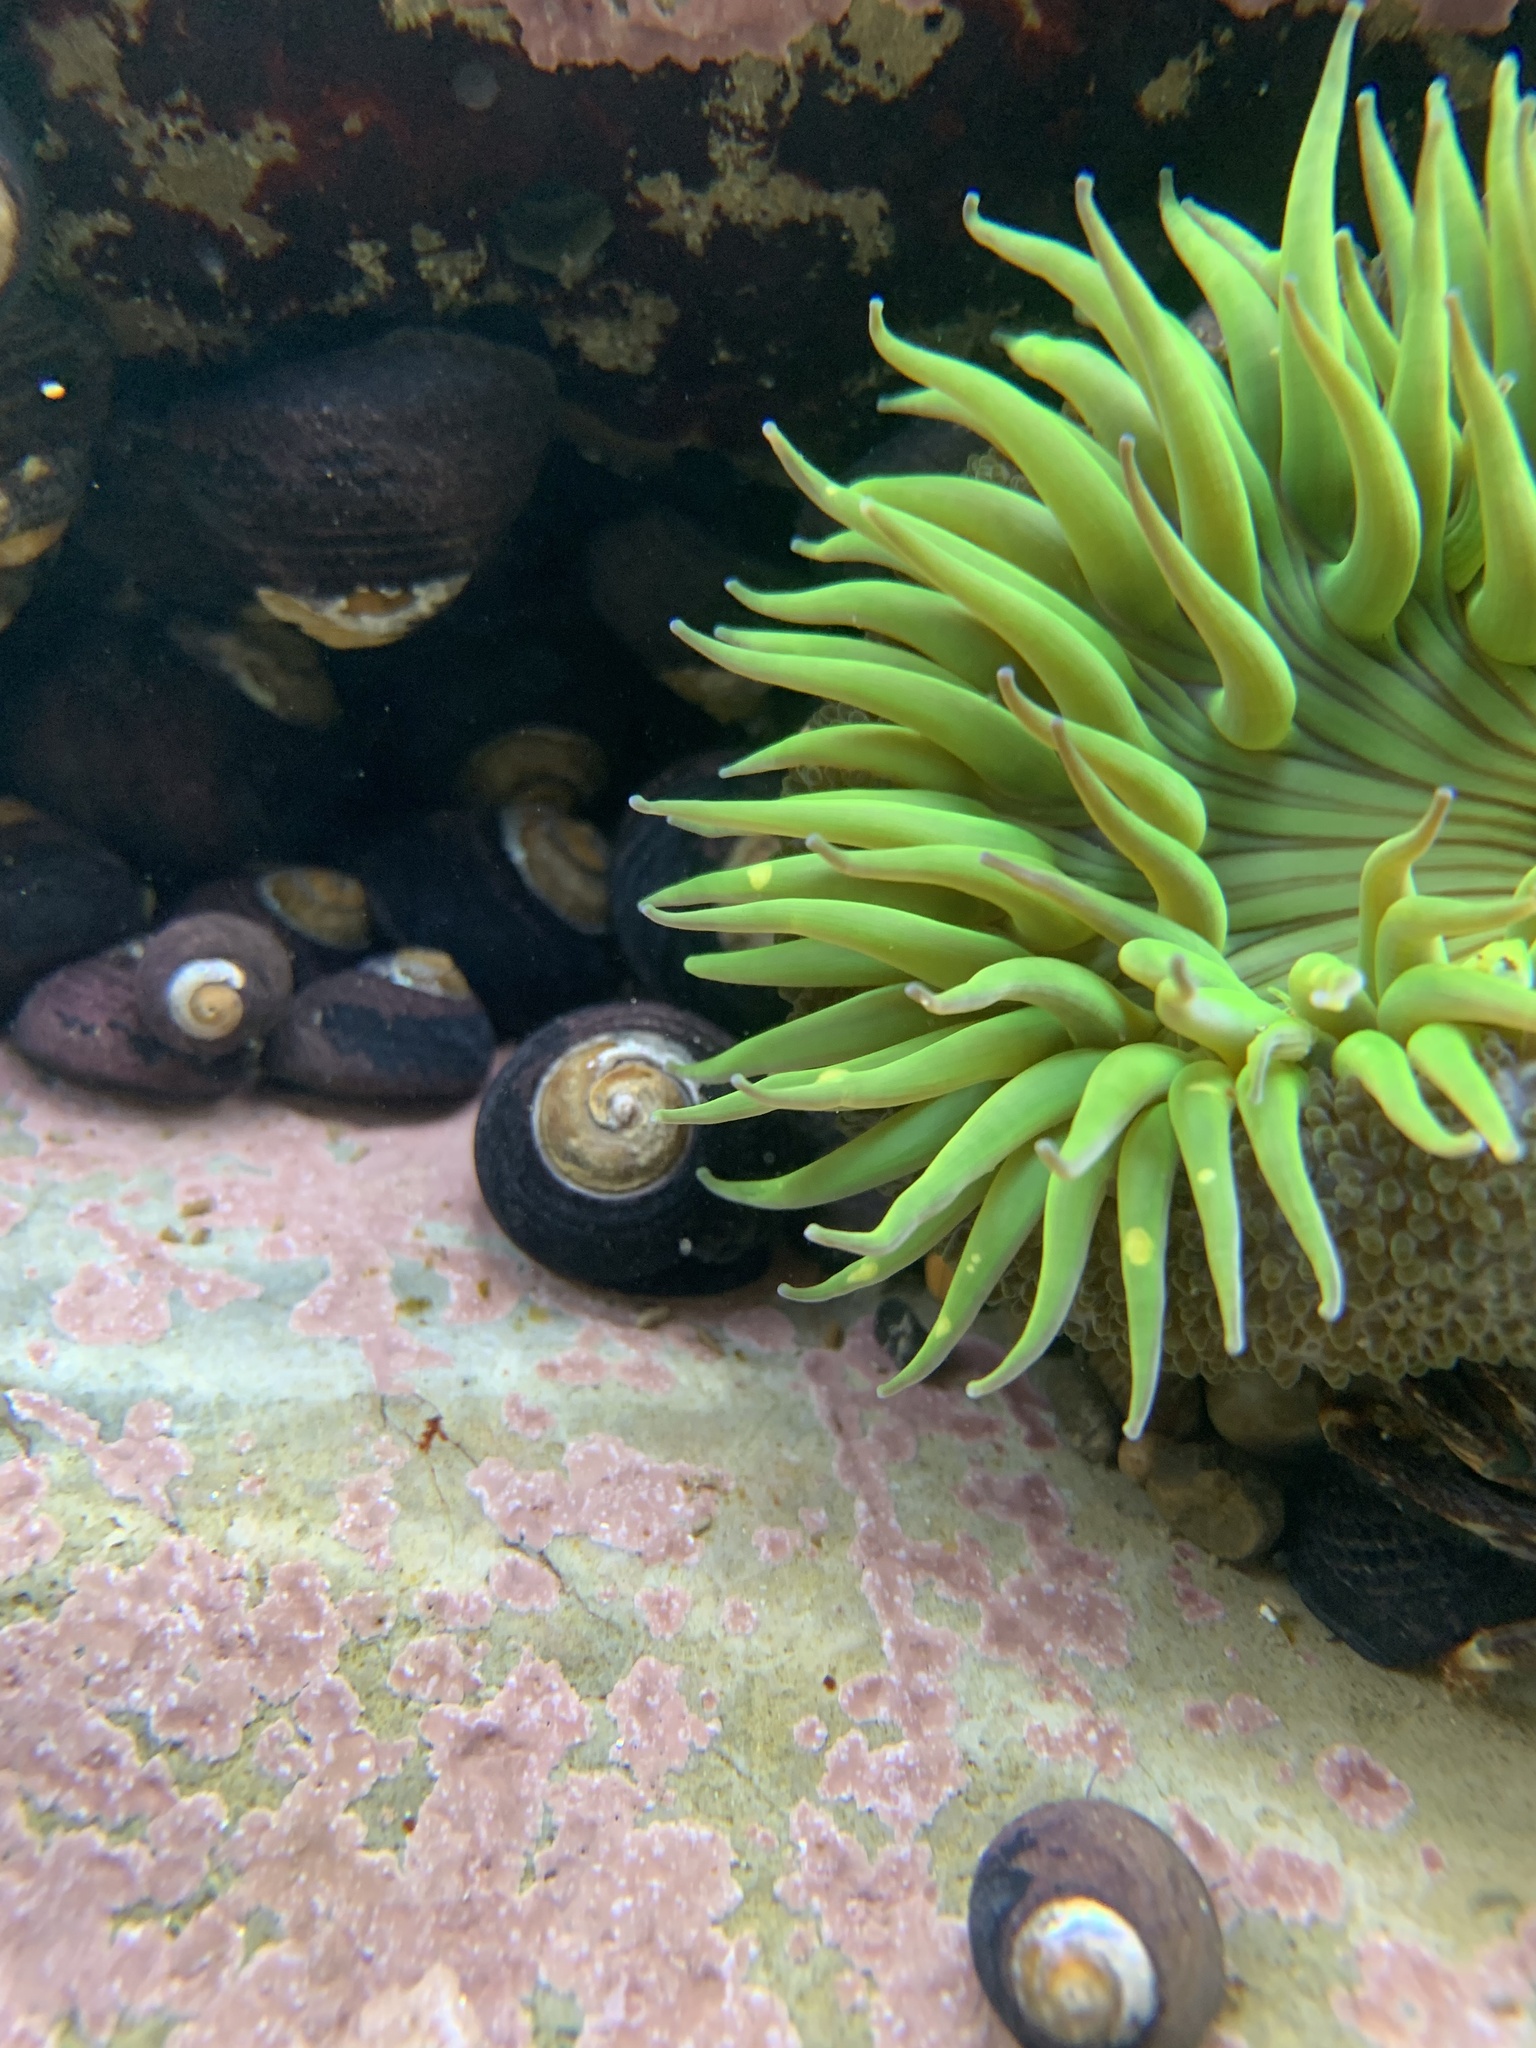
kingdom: Animalia
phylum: Cnidaria
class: Anthozoa
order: Actiniaria
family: Actiniidae
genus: Anthopleura
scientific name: Anthopleura sola
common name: Sun anemone
